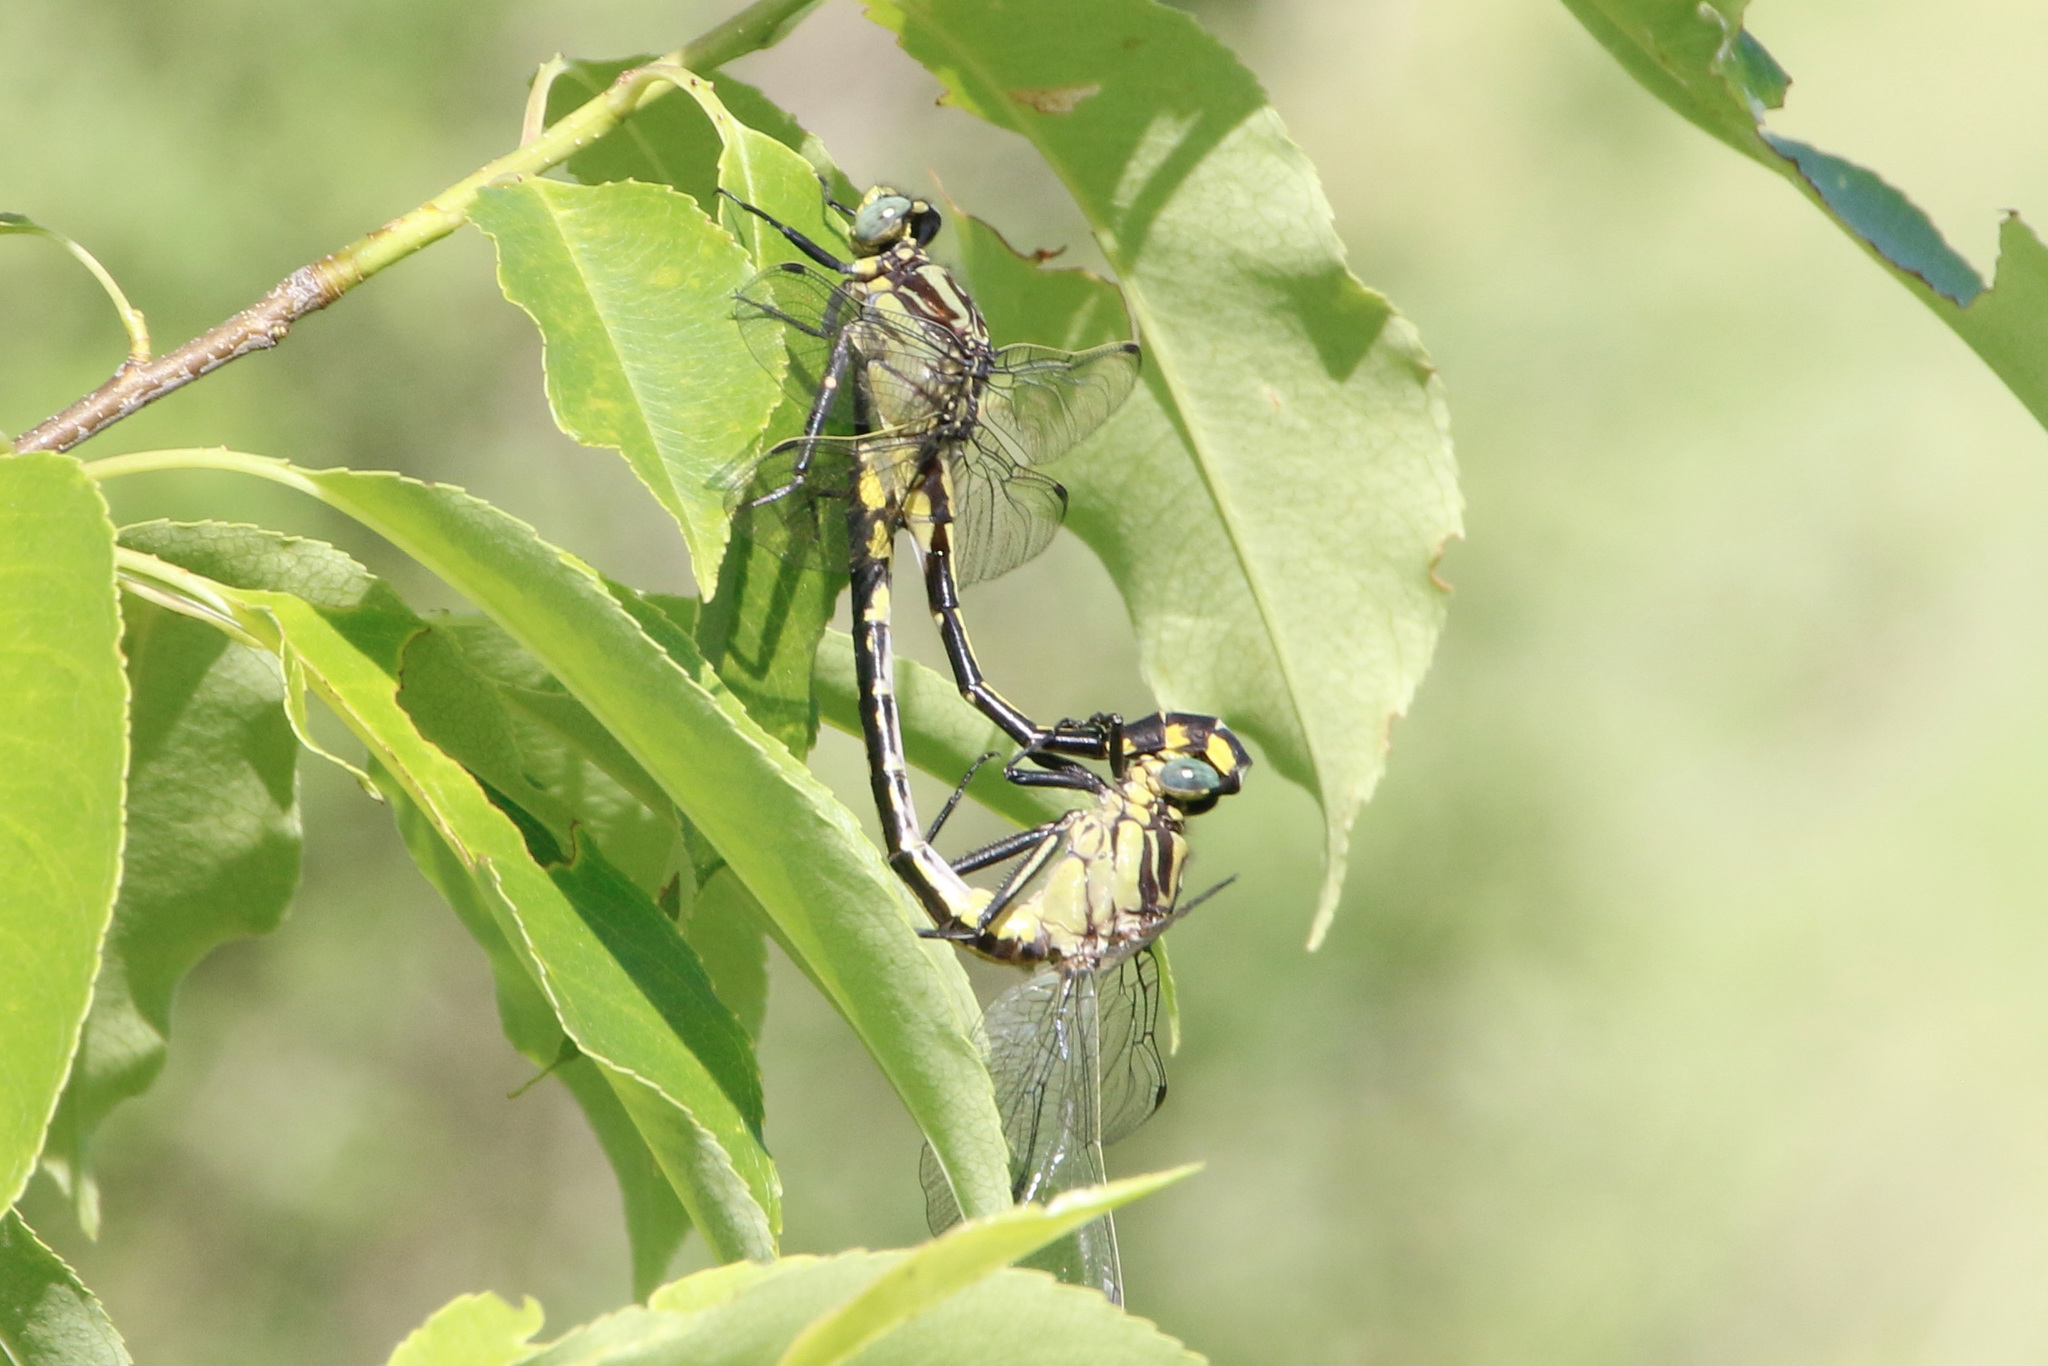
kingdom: Animalia
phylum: Arthropoda
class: Insecta
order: Odonata
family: Gomphidae
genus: Gomphurus
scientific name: Gomphurus fraternus
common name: Midland clubtail
